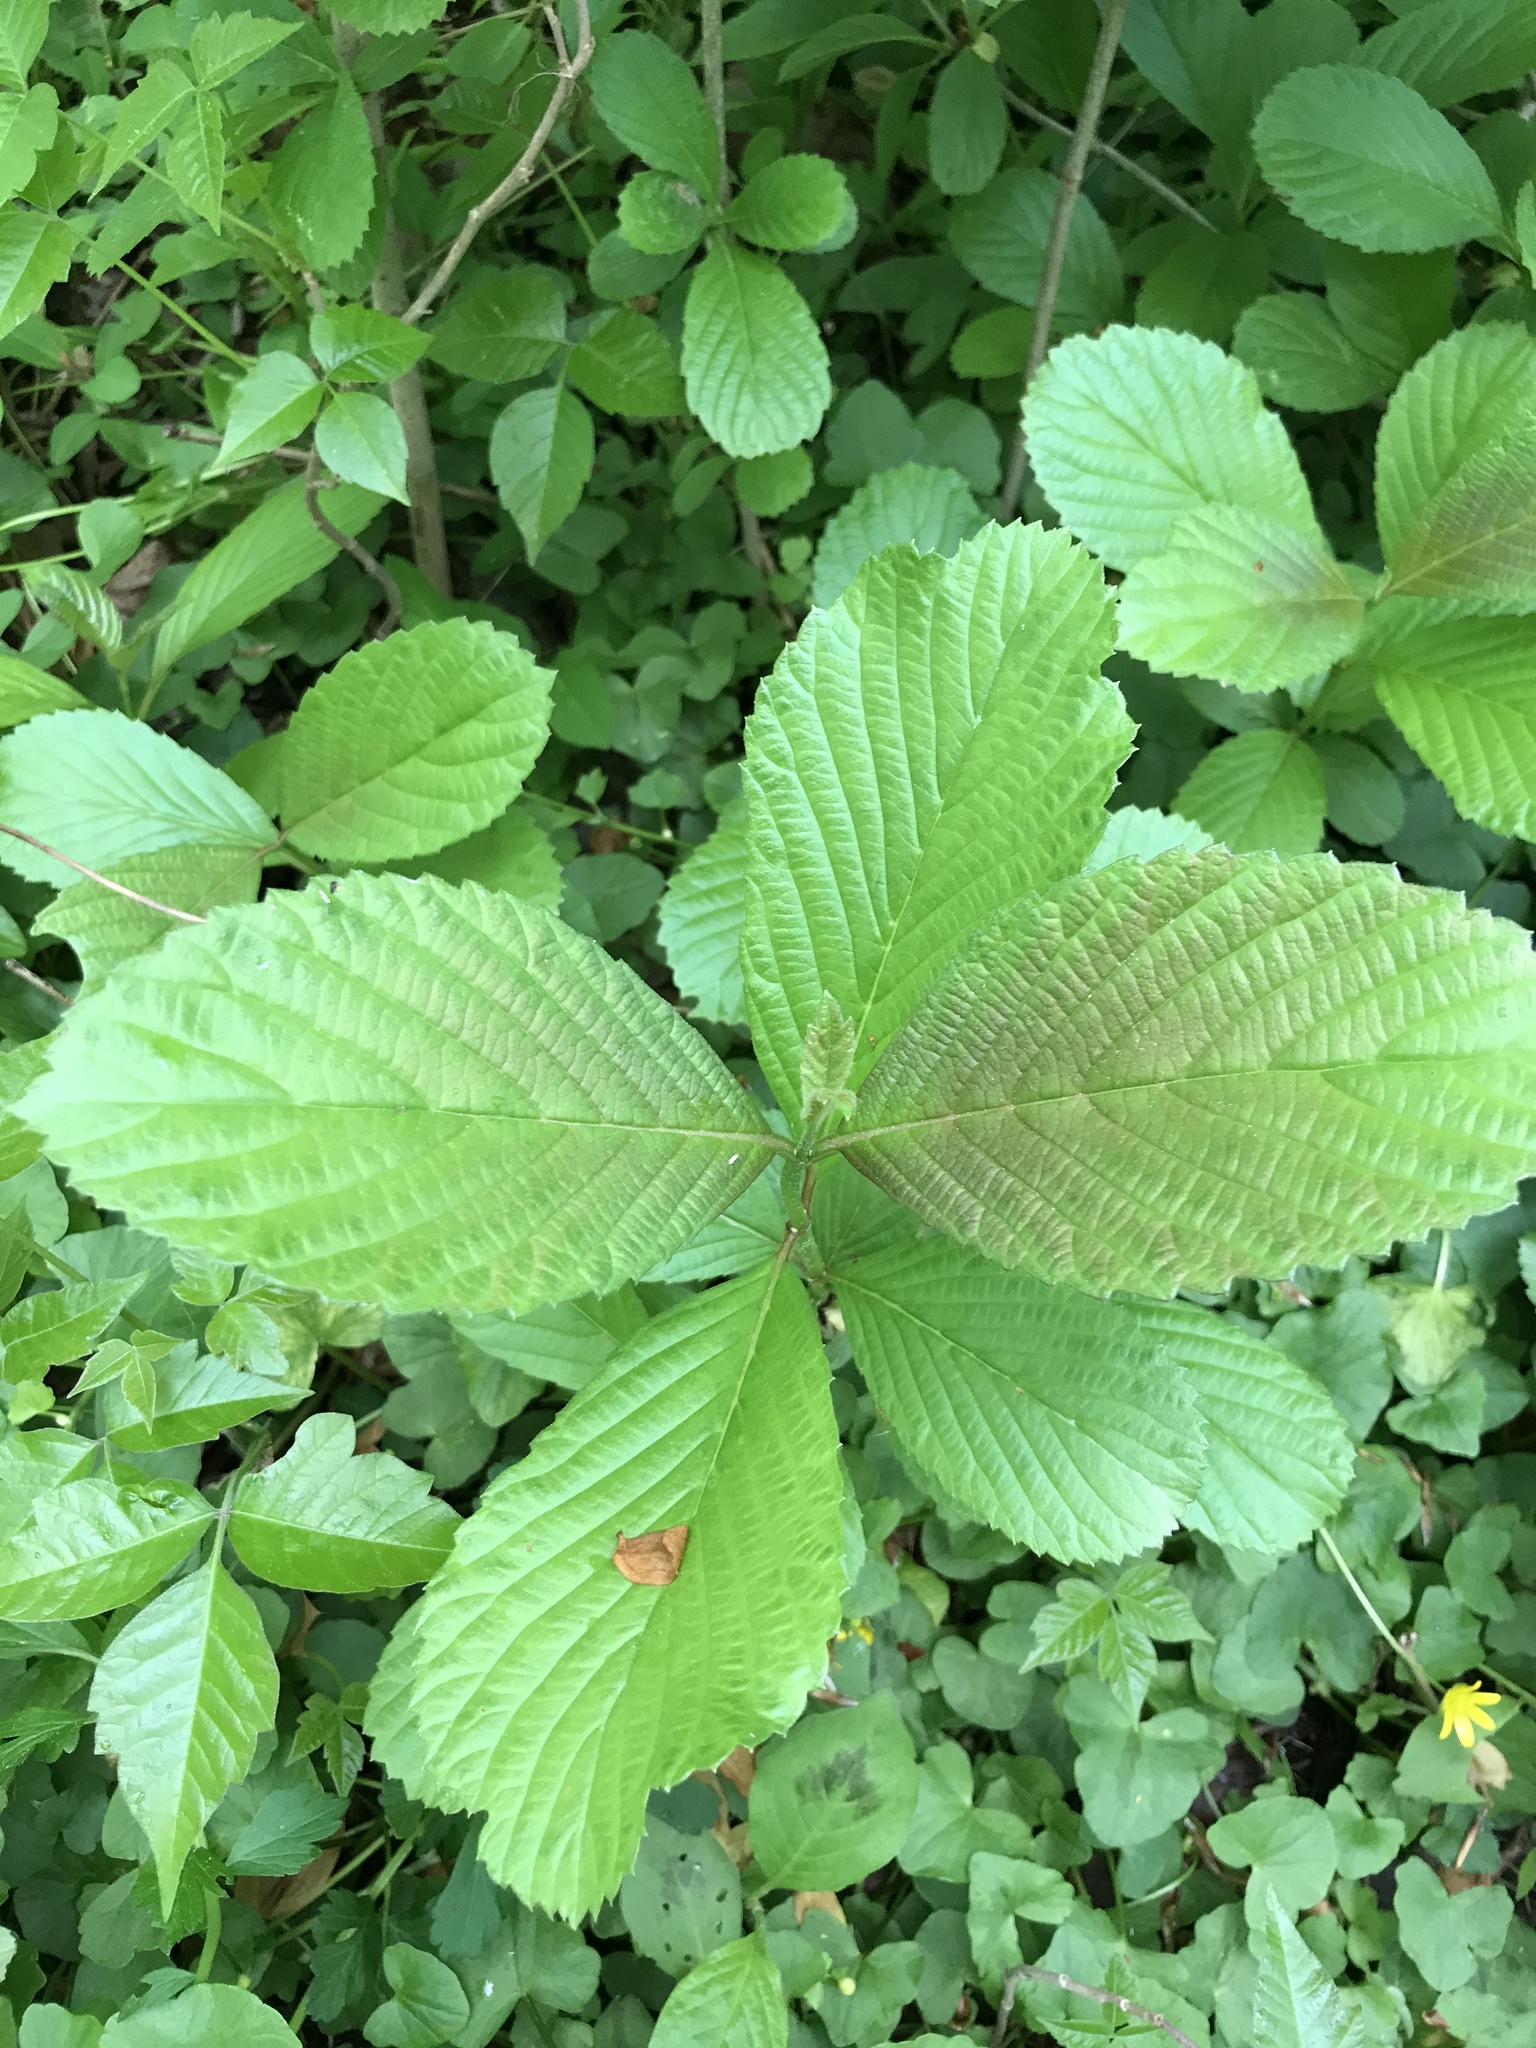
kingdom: Plantae
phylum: Tracheophyta
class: Magnoliopsida
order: Dipsacales
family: Viburnaceae
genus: Viburnum
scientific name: Viburnum sieboldii
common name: Siebold's arrowwood
